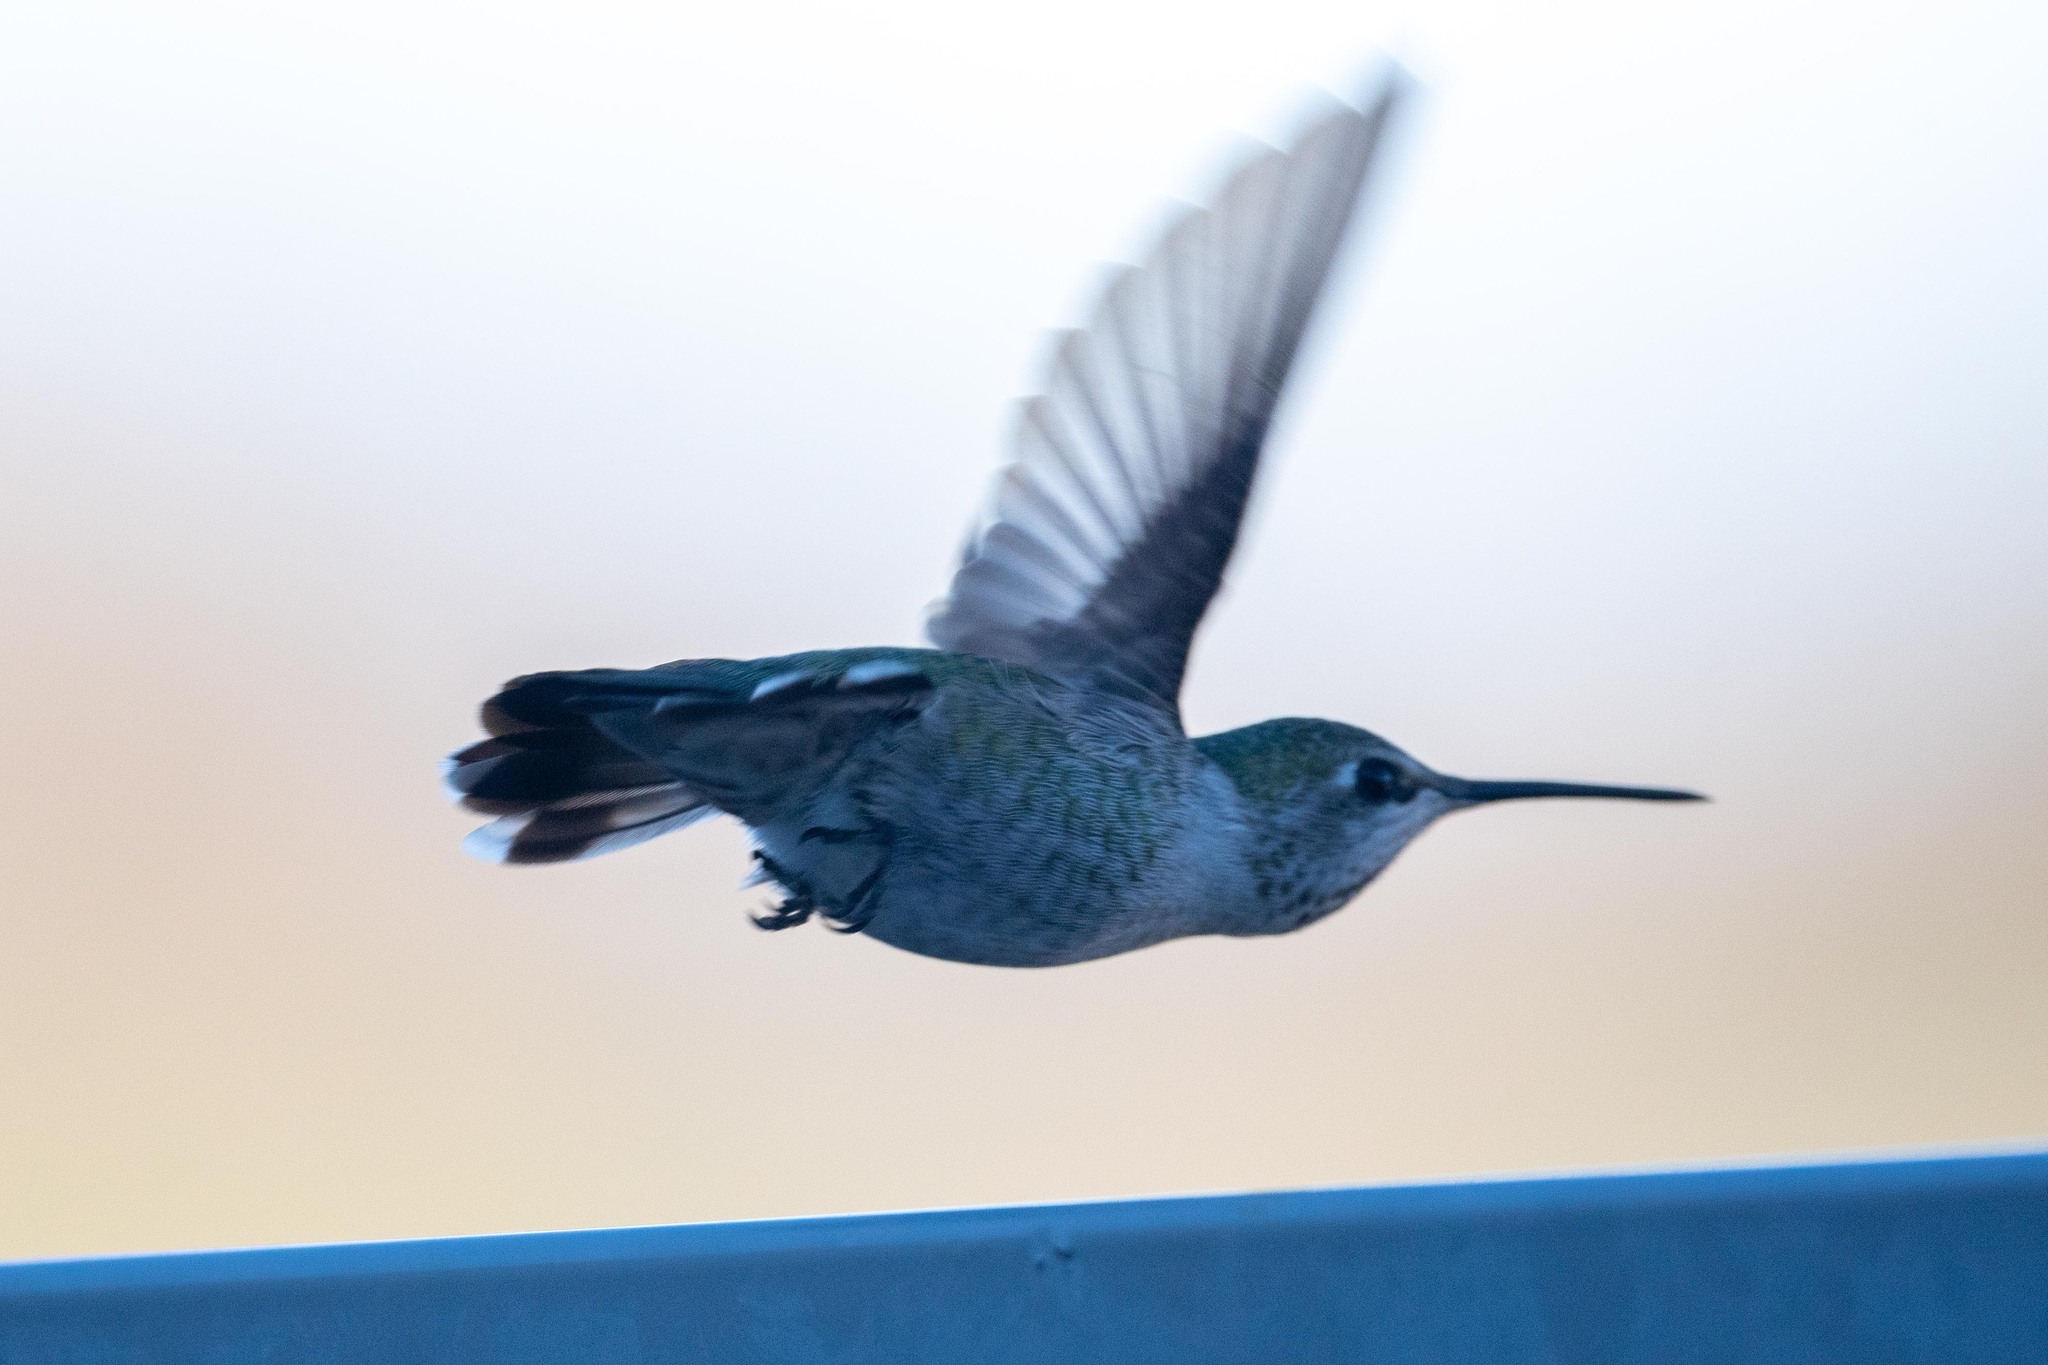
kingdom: Animalia
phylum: Chordata
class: Aves
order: Apodiformes
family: Trochilidae
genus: Calypte
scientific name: Calypte anna
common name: Anna's hummingbird
